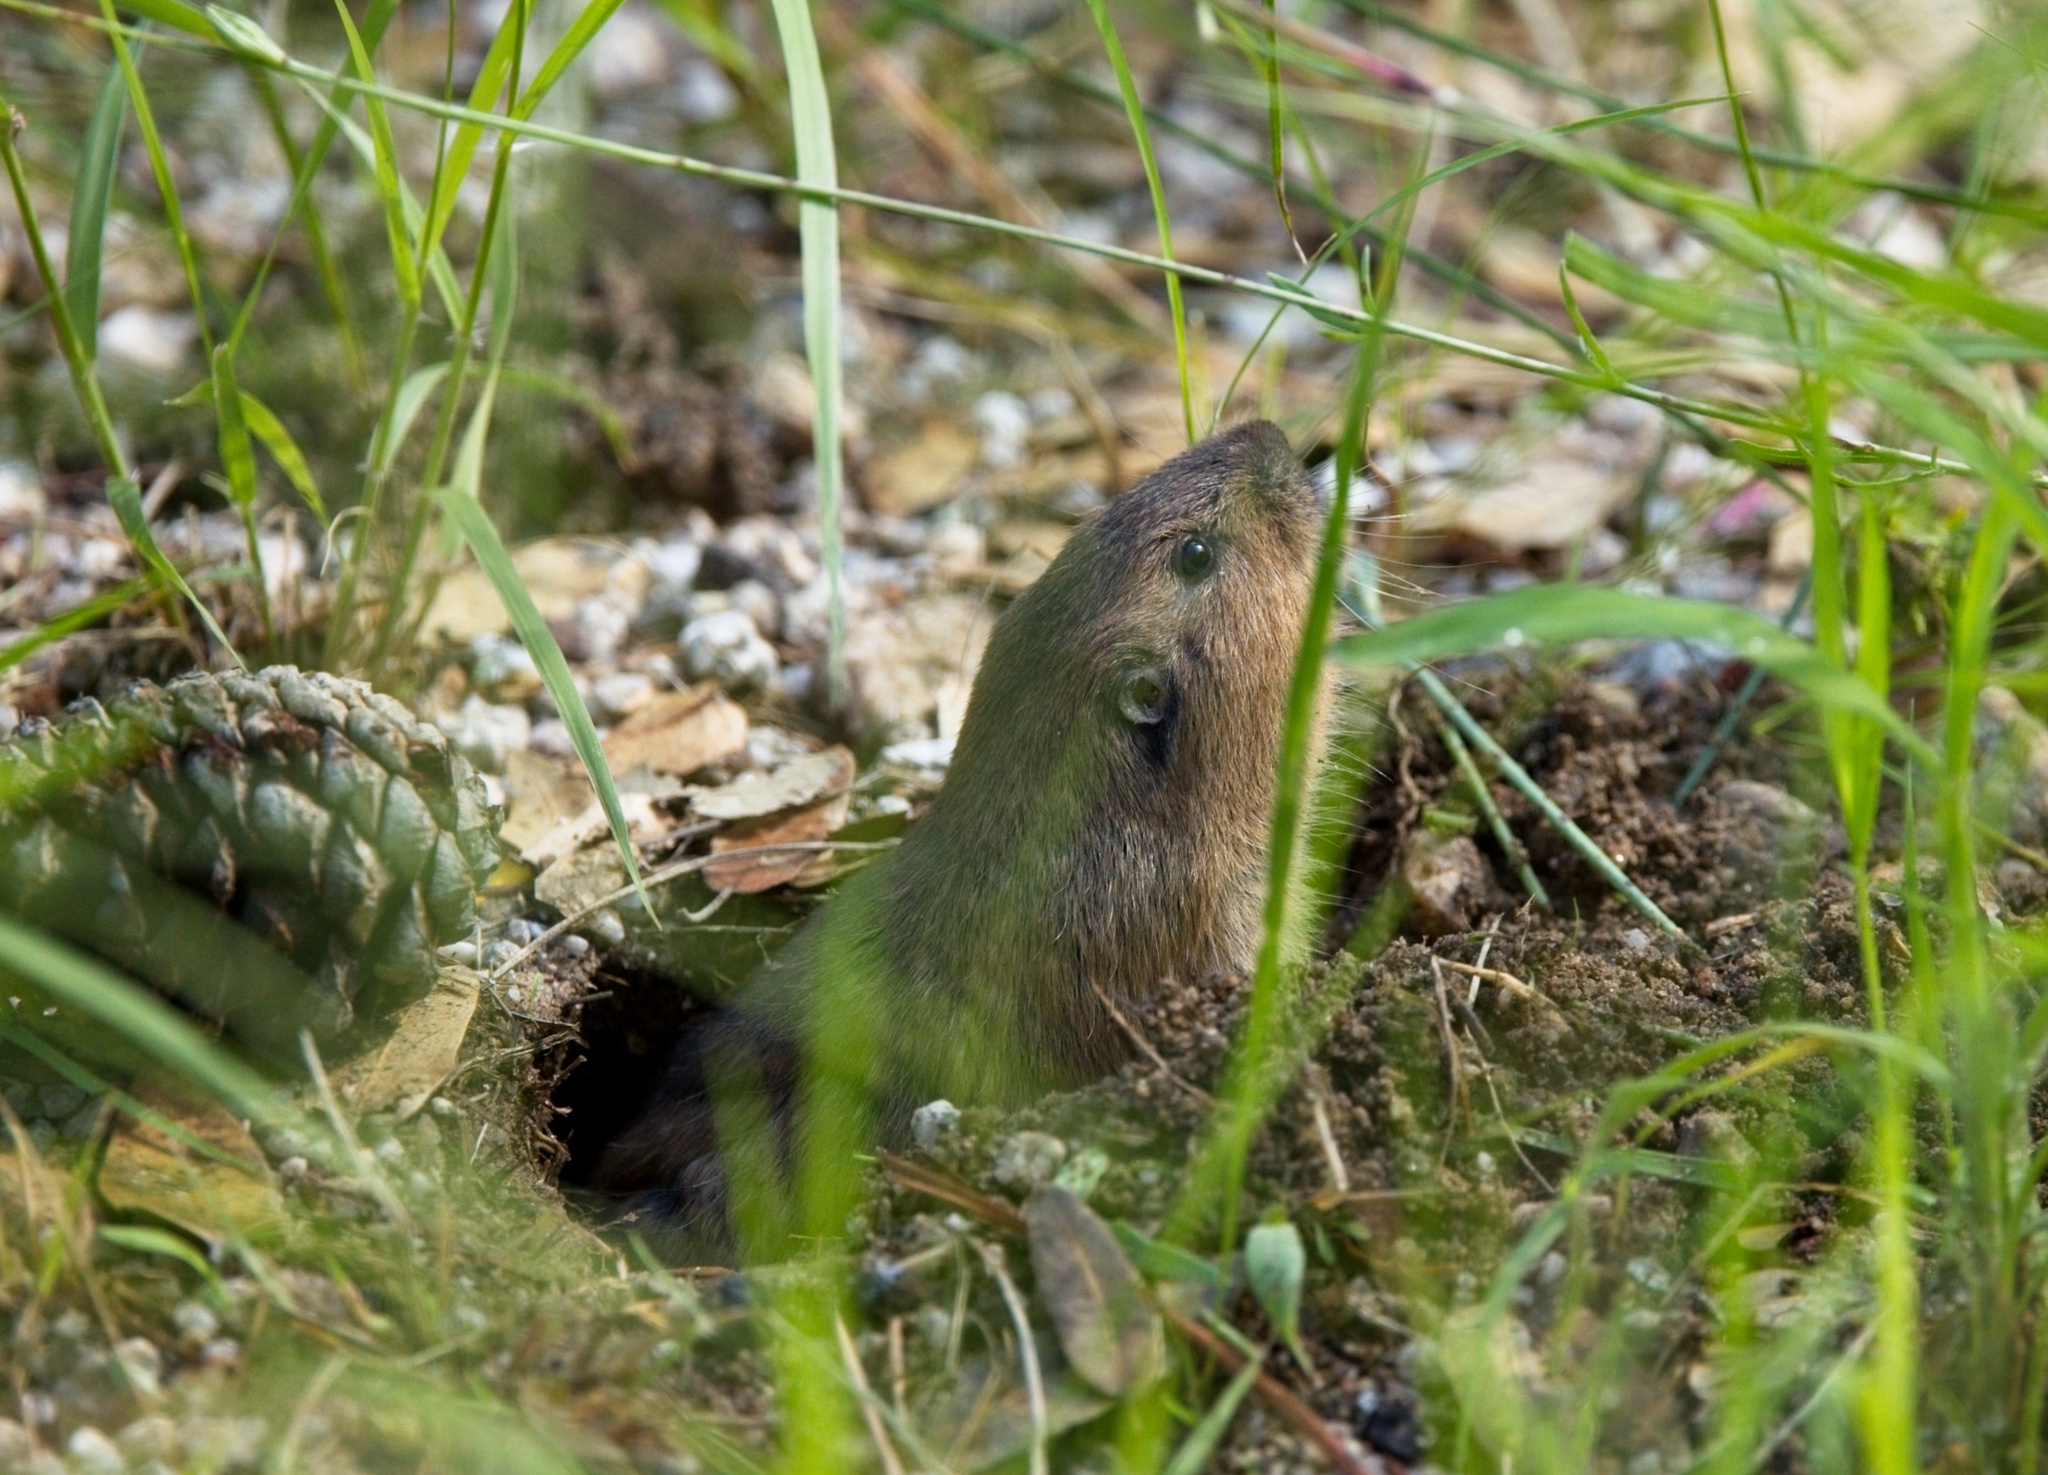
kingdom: Animalia
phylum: Chordata
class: Mammalia
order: Rodentia
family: Geomyidae
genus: Thomomys
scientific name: Thomomys bottae
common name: Botta's pocket gopher
